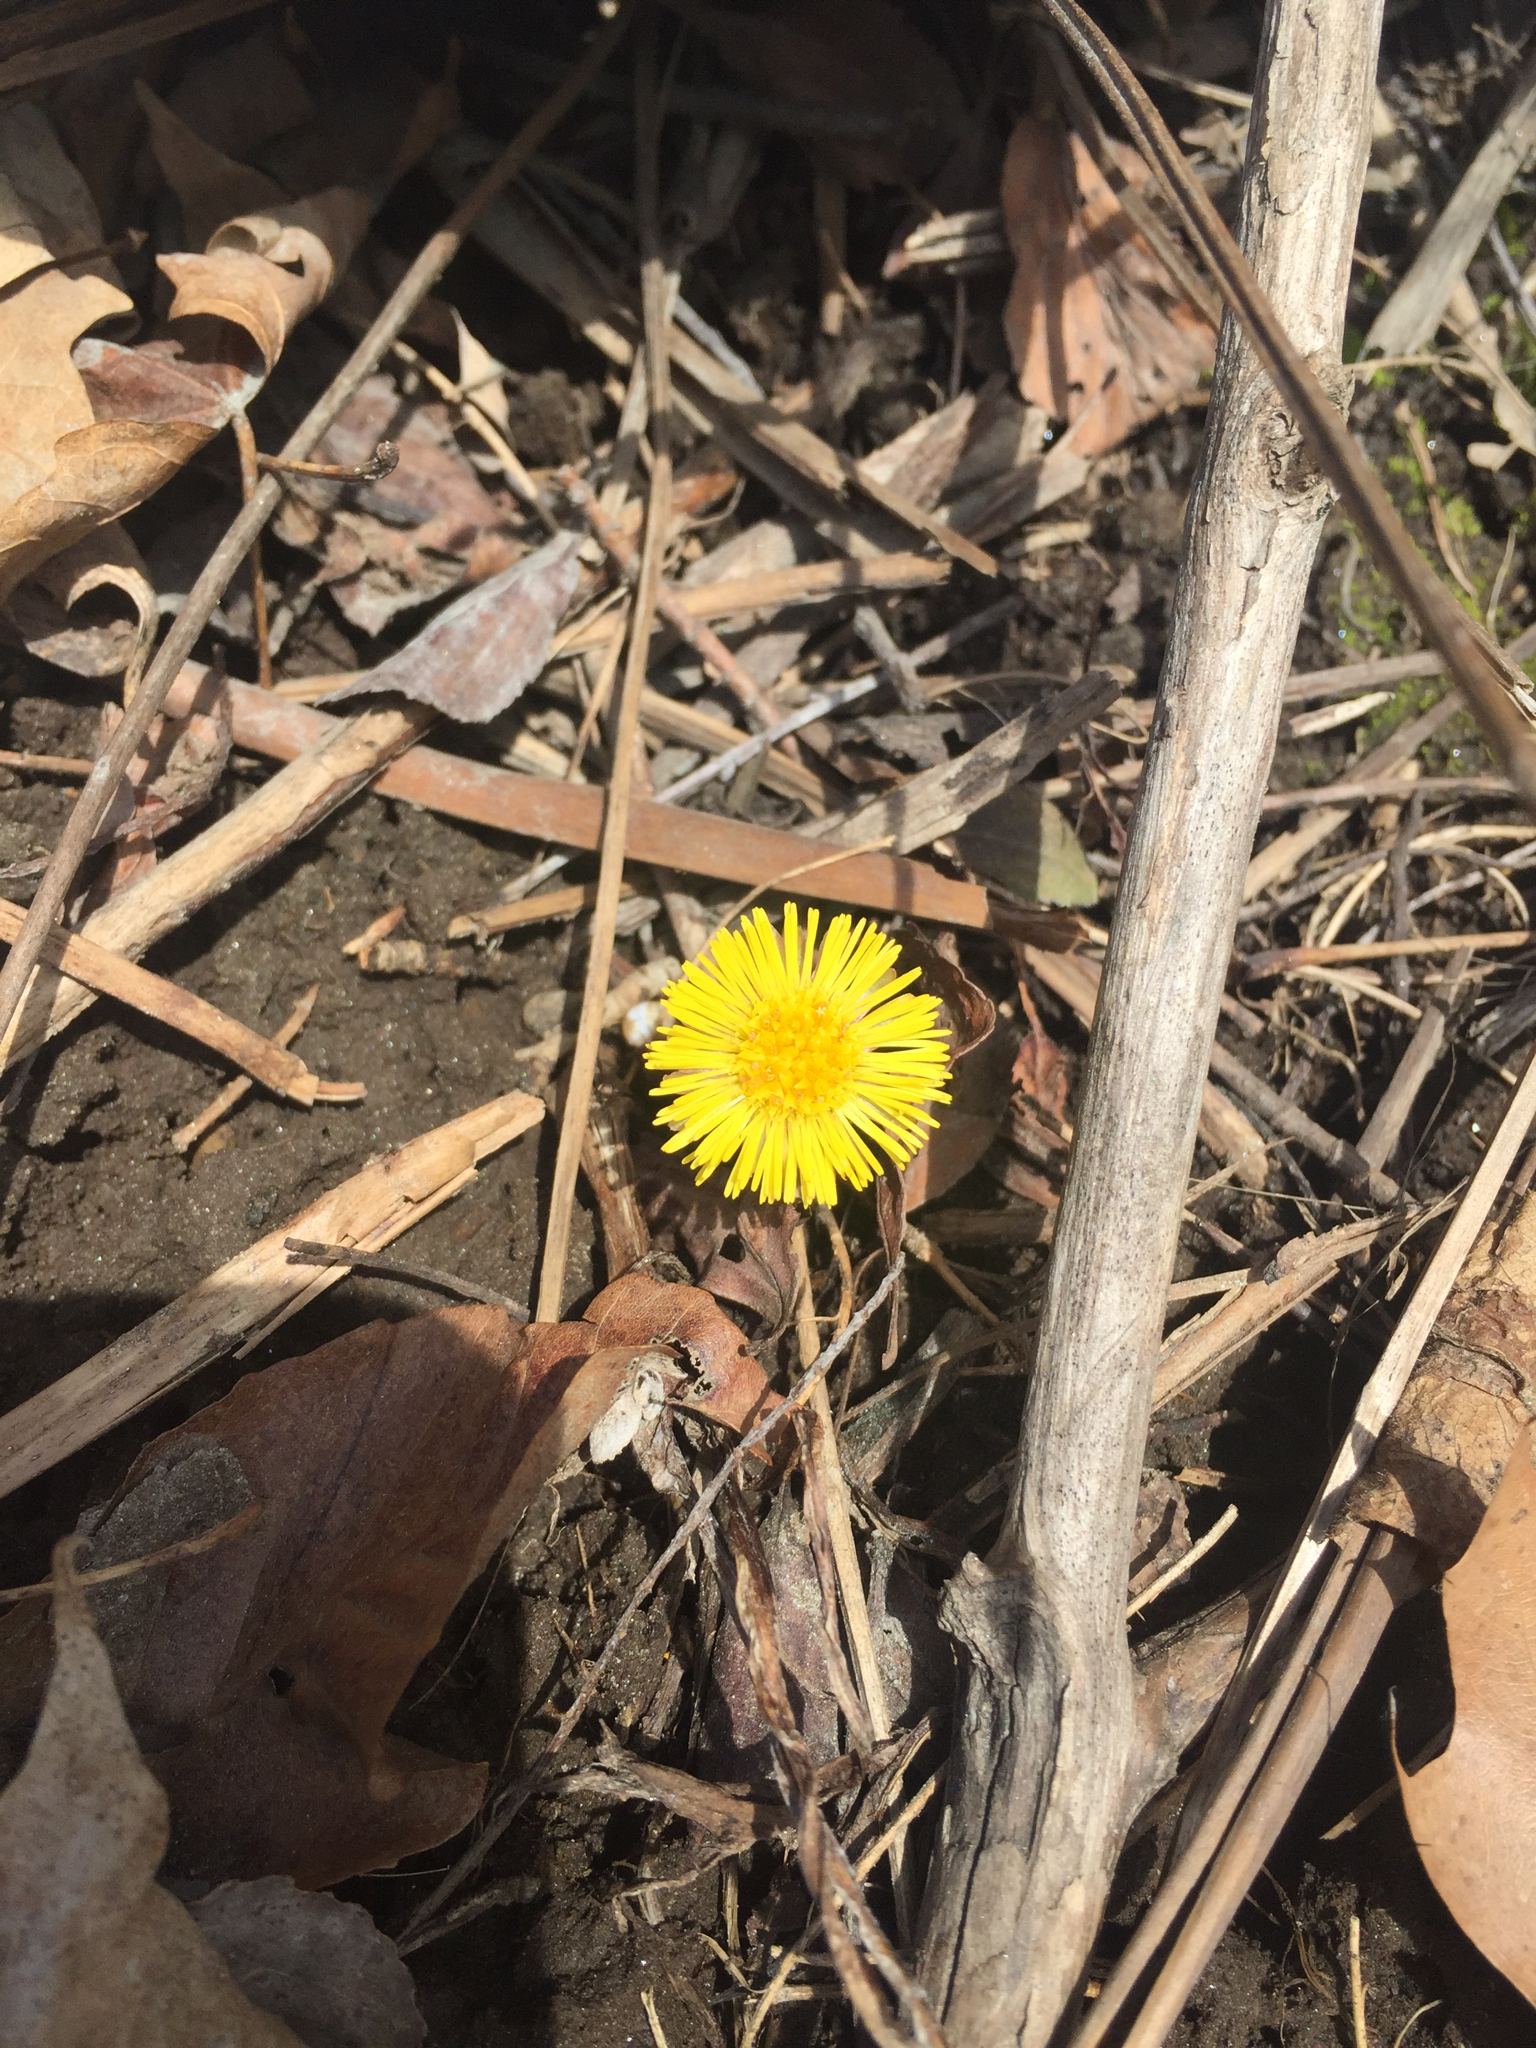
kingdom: Plantae
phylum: Tracheophyta
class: Magnoliopsida
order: Asterales
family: Asteraceae
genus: Tussilago
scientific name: Tussilago farfara
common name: Coltsfoot
